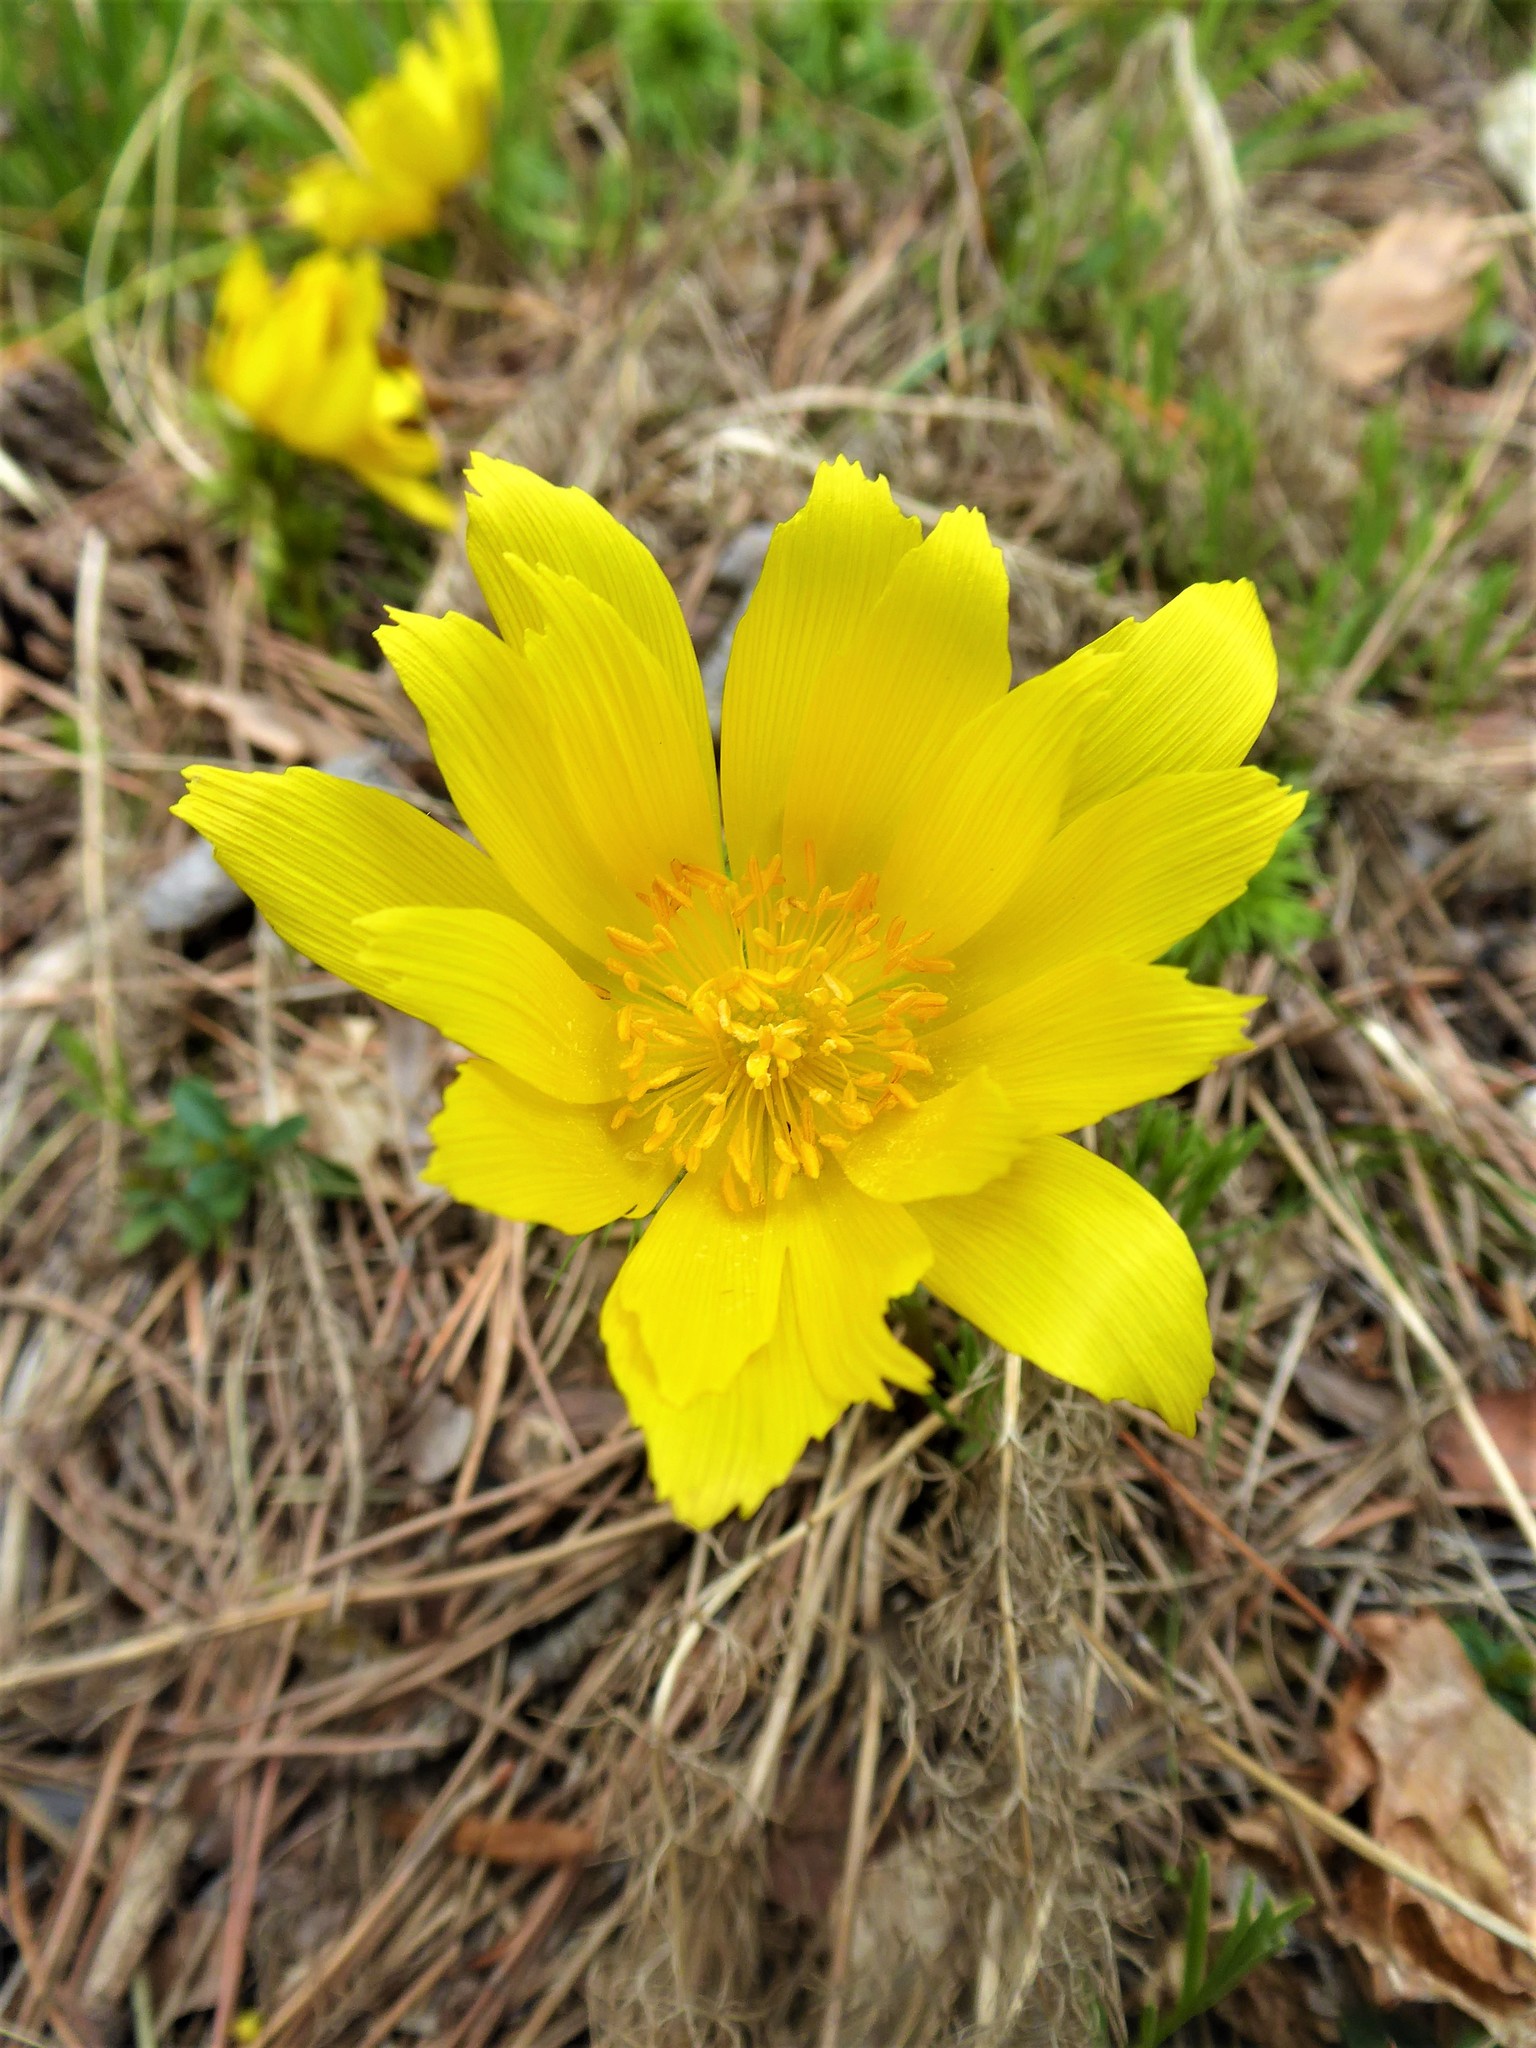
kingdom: Plantae
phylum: Tracheophyta
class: Magnoliopsida
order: Ranunculales
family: Ranunculaceae
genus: Adonis
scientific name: Adonis vernalis
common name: Yellow pheasants-eye
